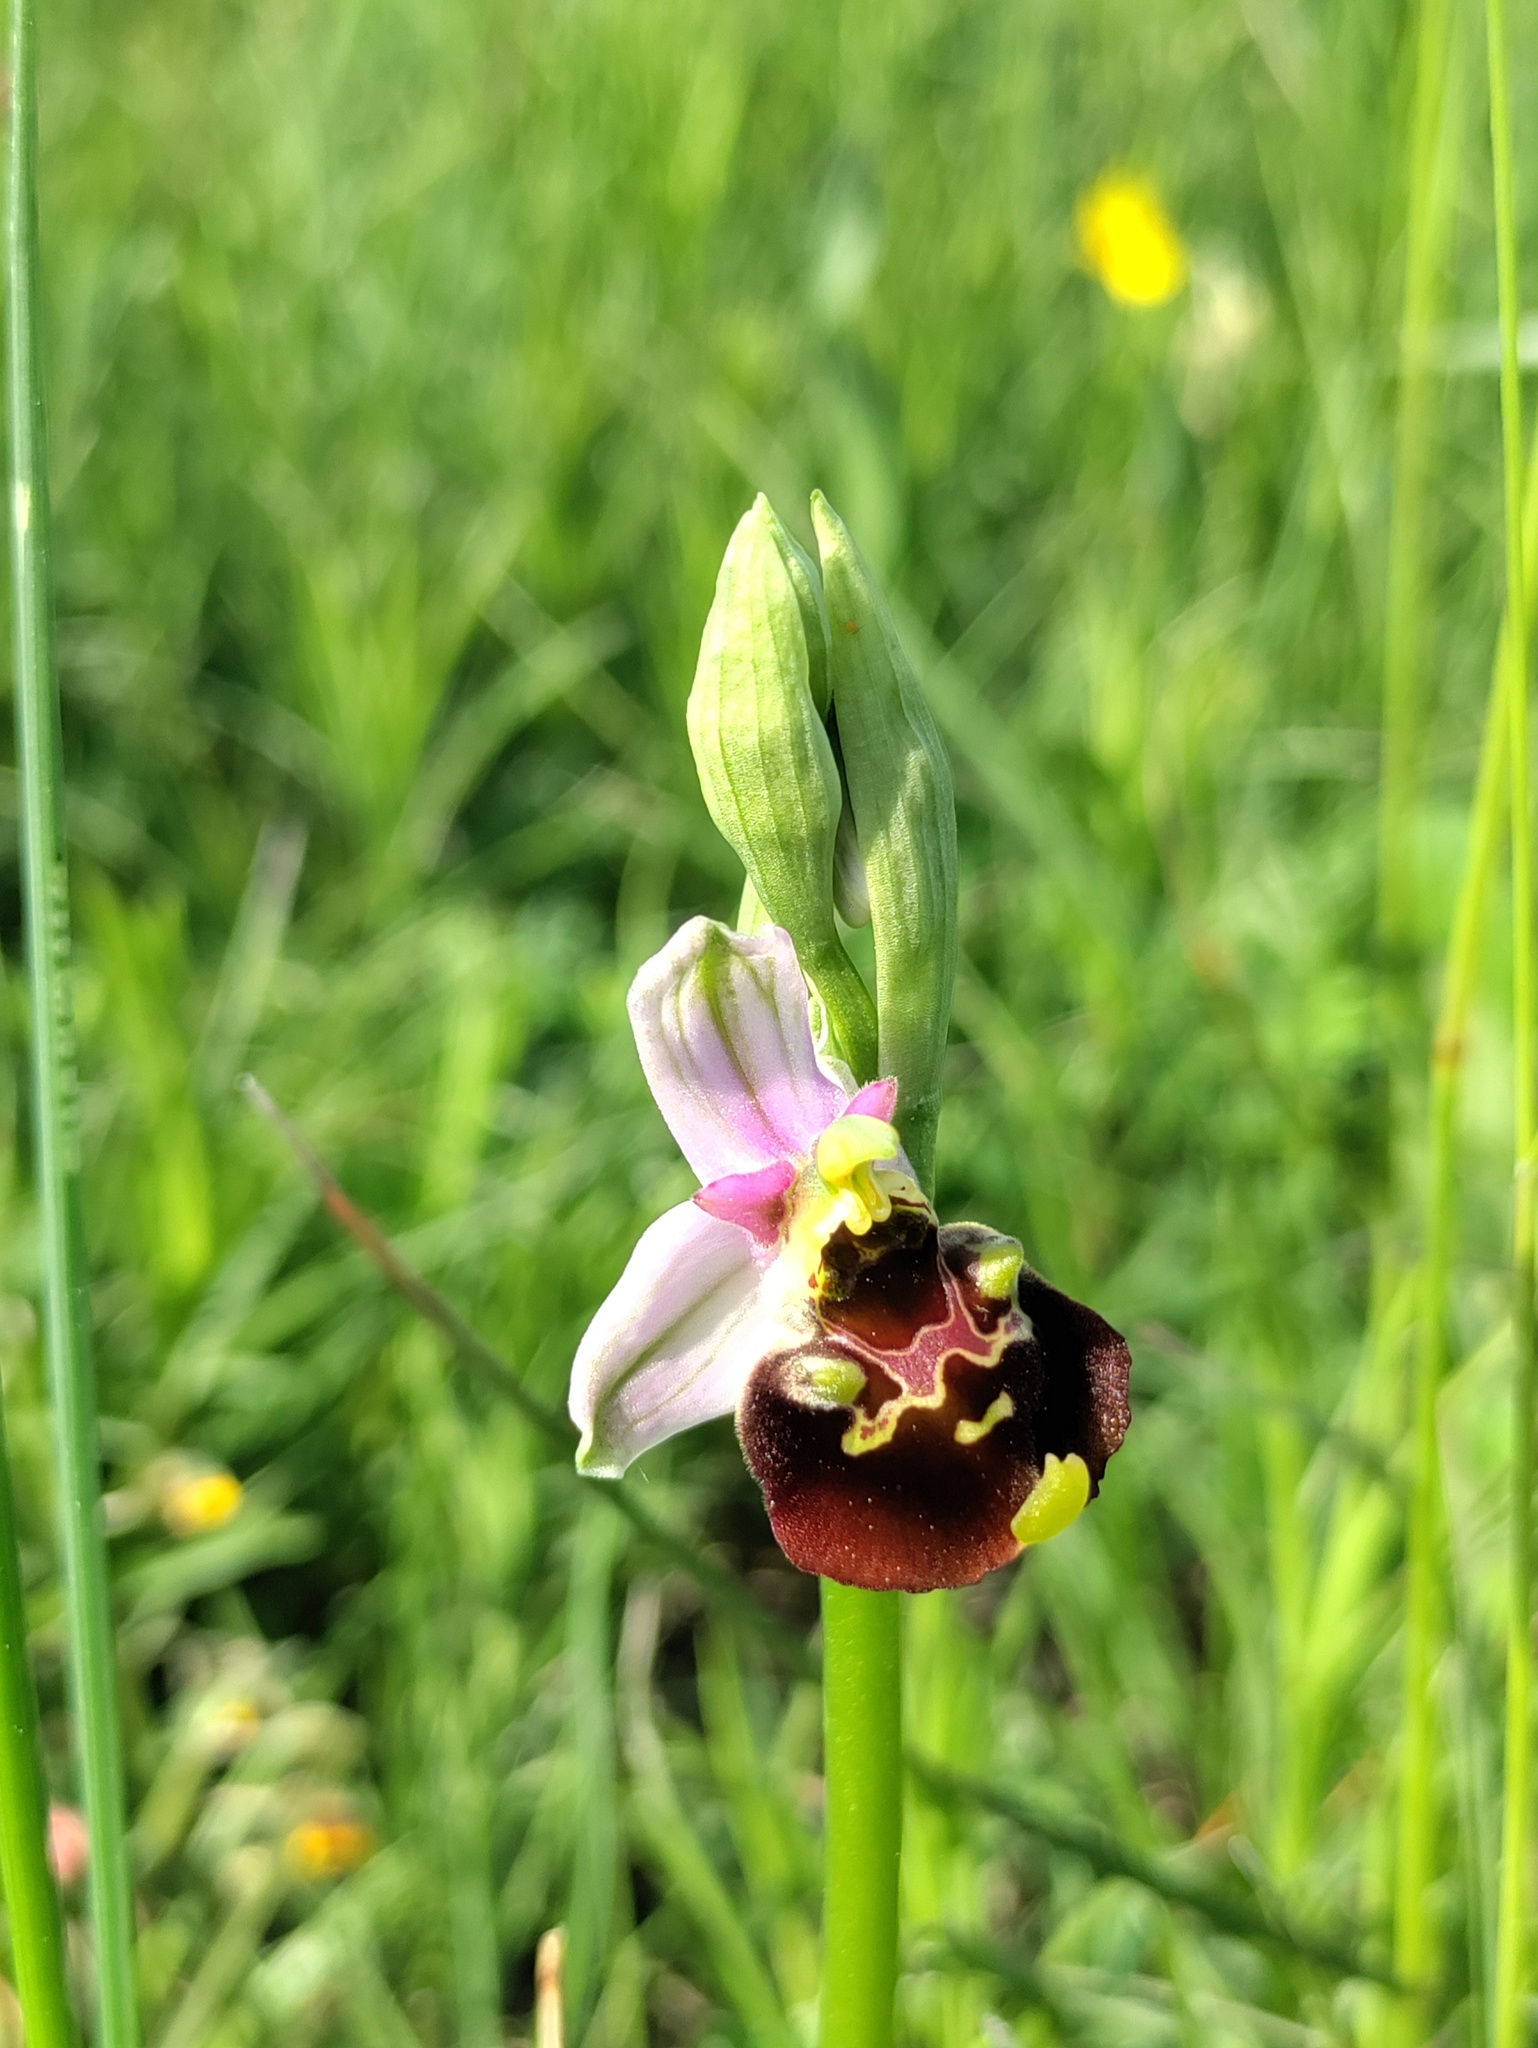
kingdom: Plantae
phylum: Tracheophyta
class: Liliopsida
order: Asparagales
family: Orchidaceae
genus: Ophrys
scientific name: Ophrys holosericea
